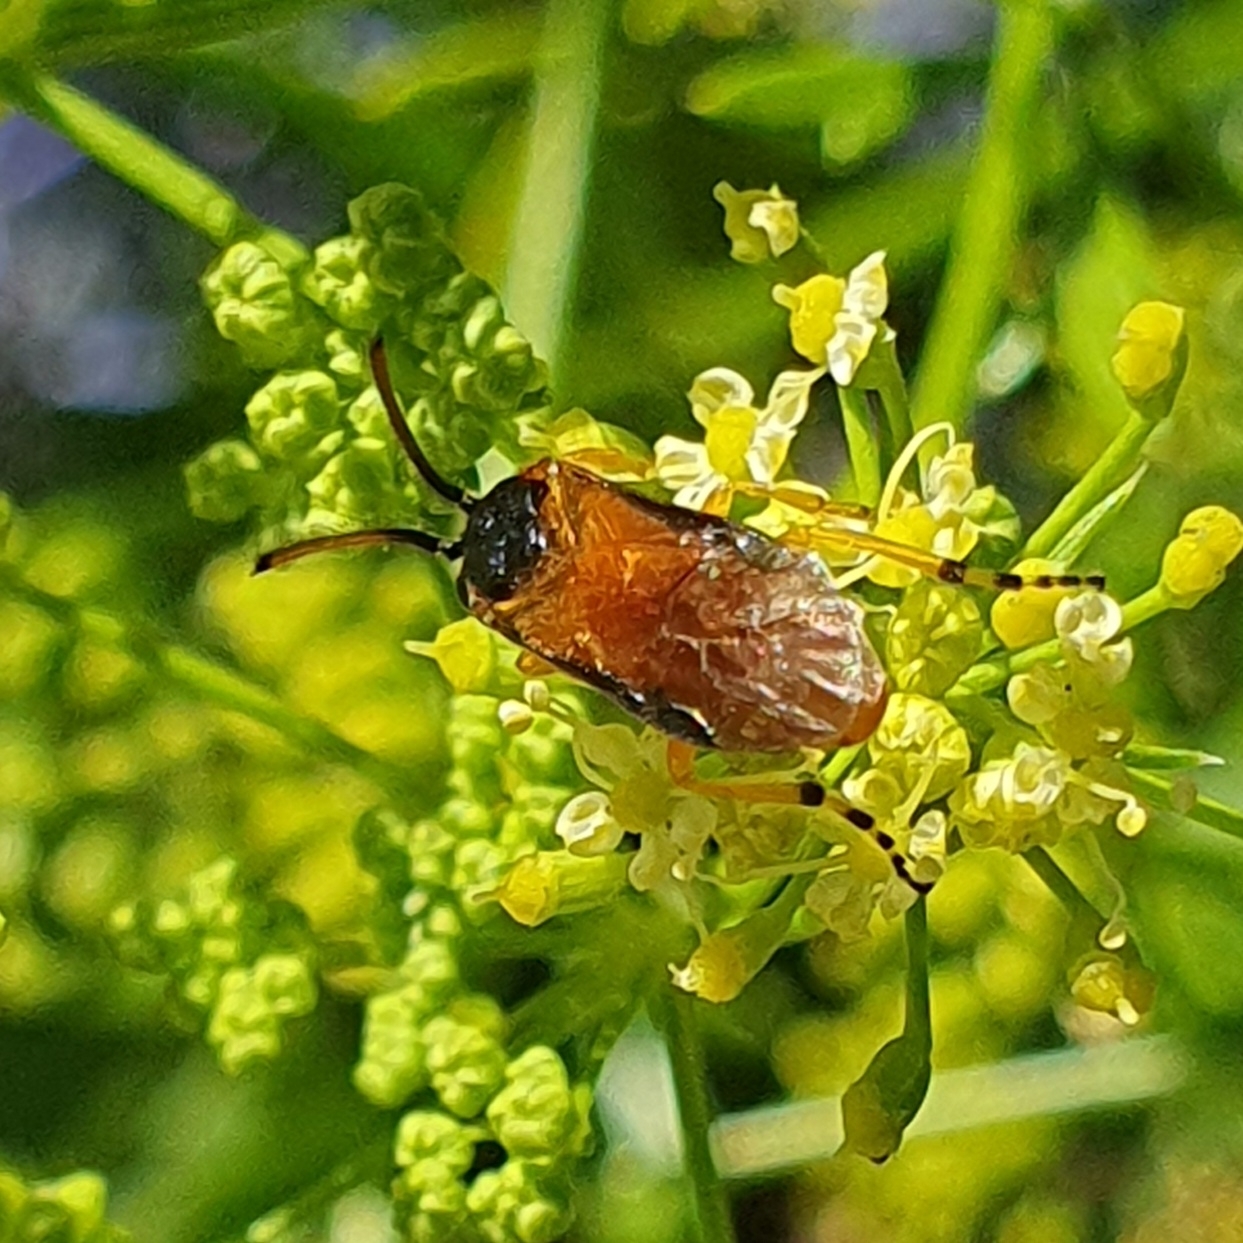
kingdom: Animalia
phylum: Arthropoda
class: Insecta
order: Hymenoptera
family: Argidae
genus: Arge
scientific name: Arge ochropus
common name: Argid sawfly
